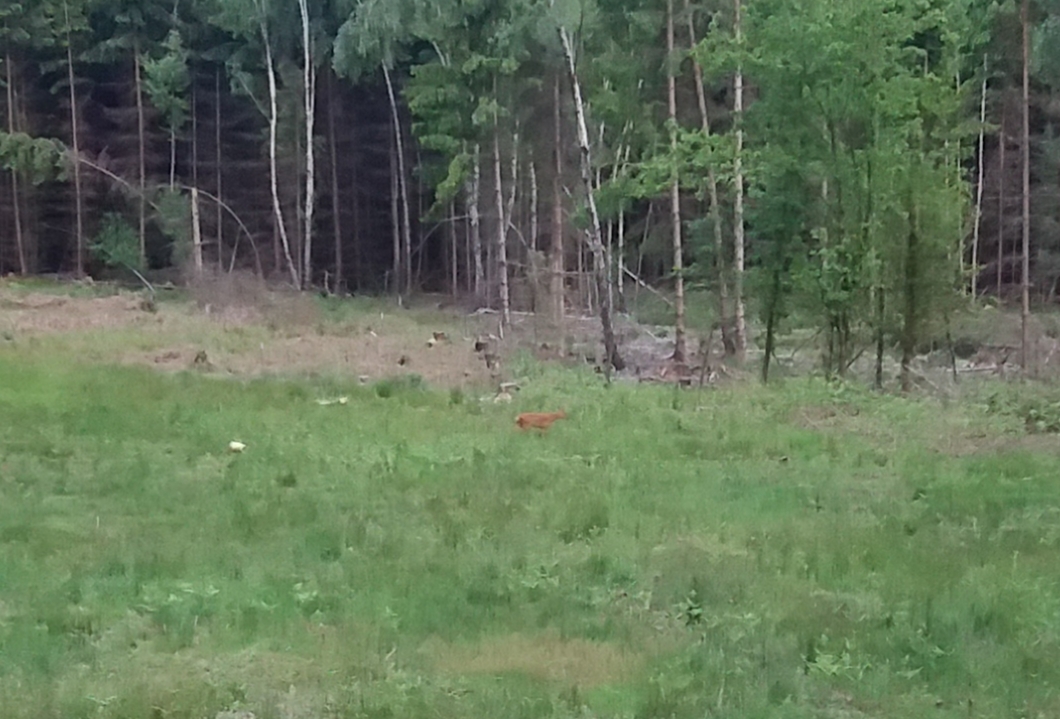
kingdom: Animalia
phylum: Chordata
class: Mammalia
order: Artiodactyla
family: Cervidae
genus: Capreolus
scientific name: Capreolus capreolus
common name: Western roe deer
